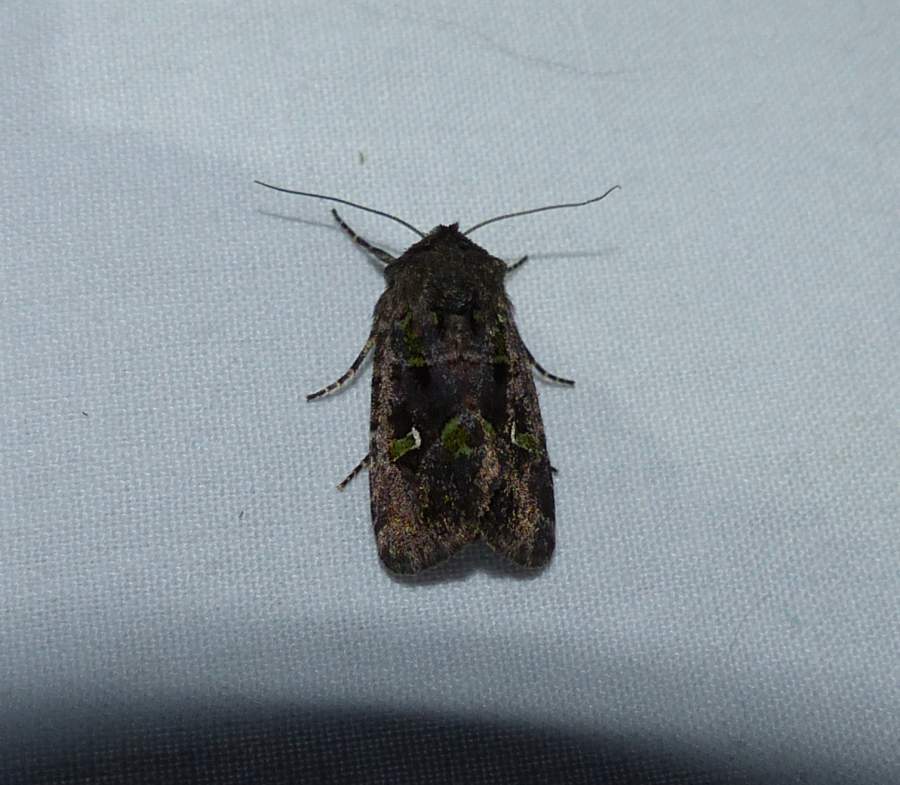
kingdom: Animalia
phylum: Arthropoda
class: Insecta
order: Lepidoptera
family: Noctuidae
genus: Lacinipolia
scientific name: Lacinipolia renigera
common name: Kidney-spotted minor
